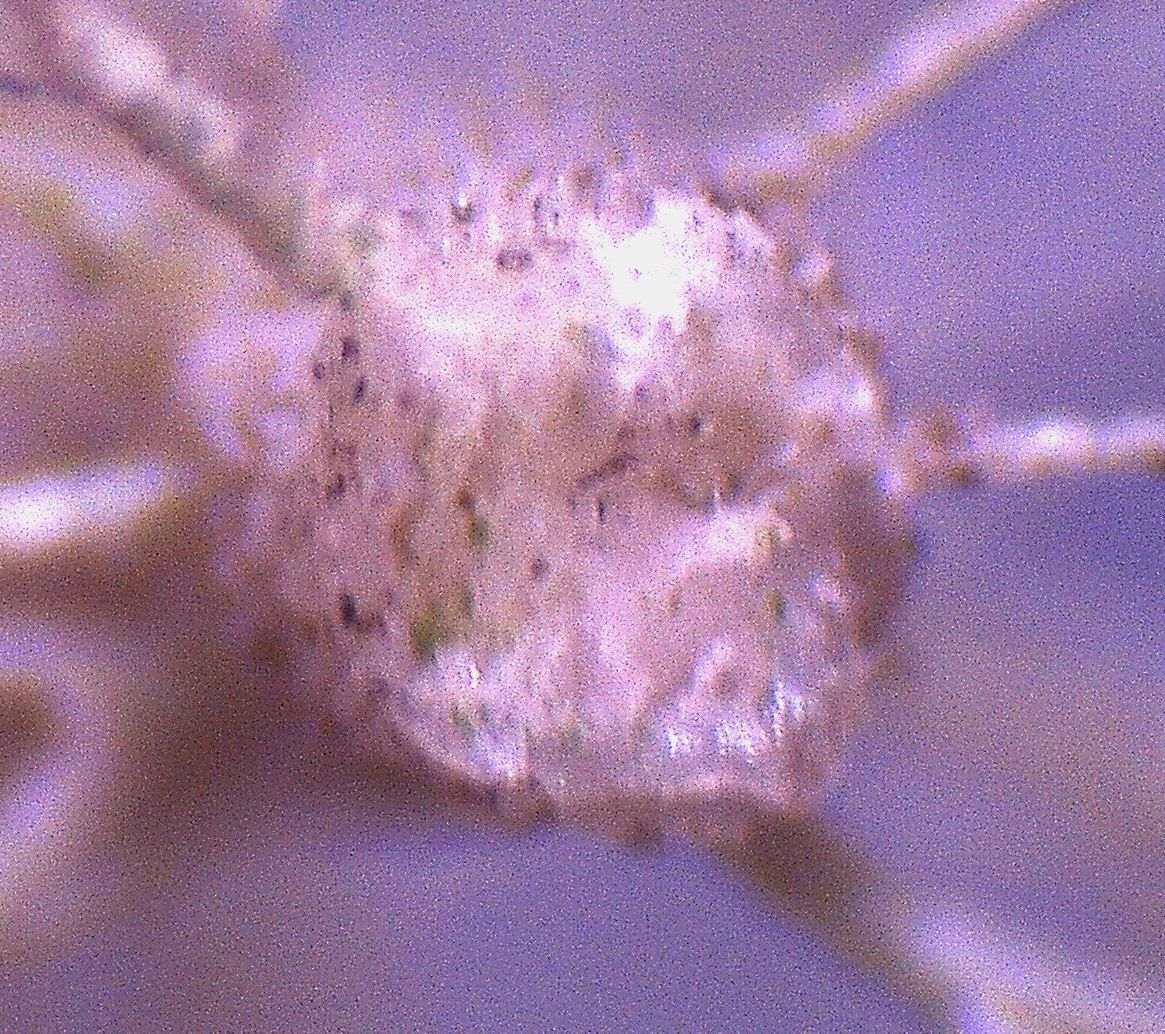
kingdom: Fungi
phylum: Ascomycota
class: Lecanoromycetes
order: Lecanorales
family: Parmeliaceae
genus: Usnea
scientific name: Usnea ciliifera
